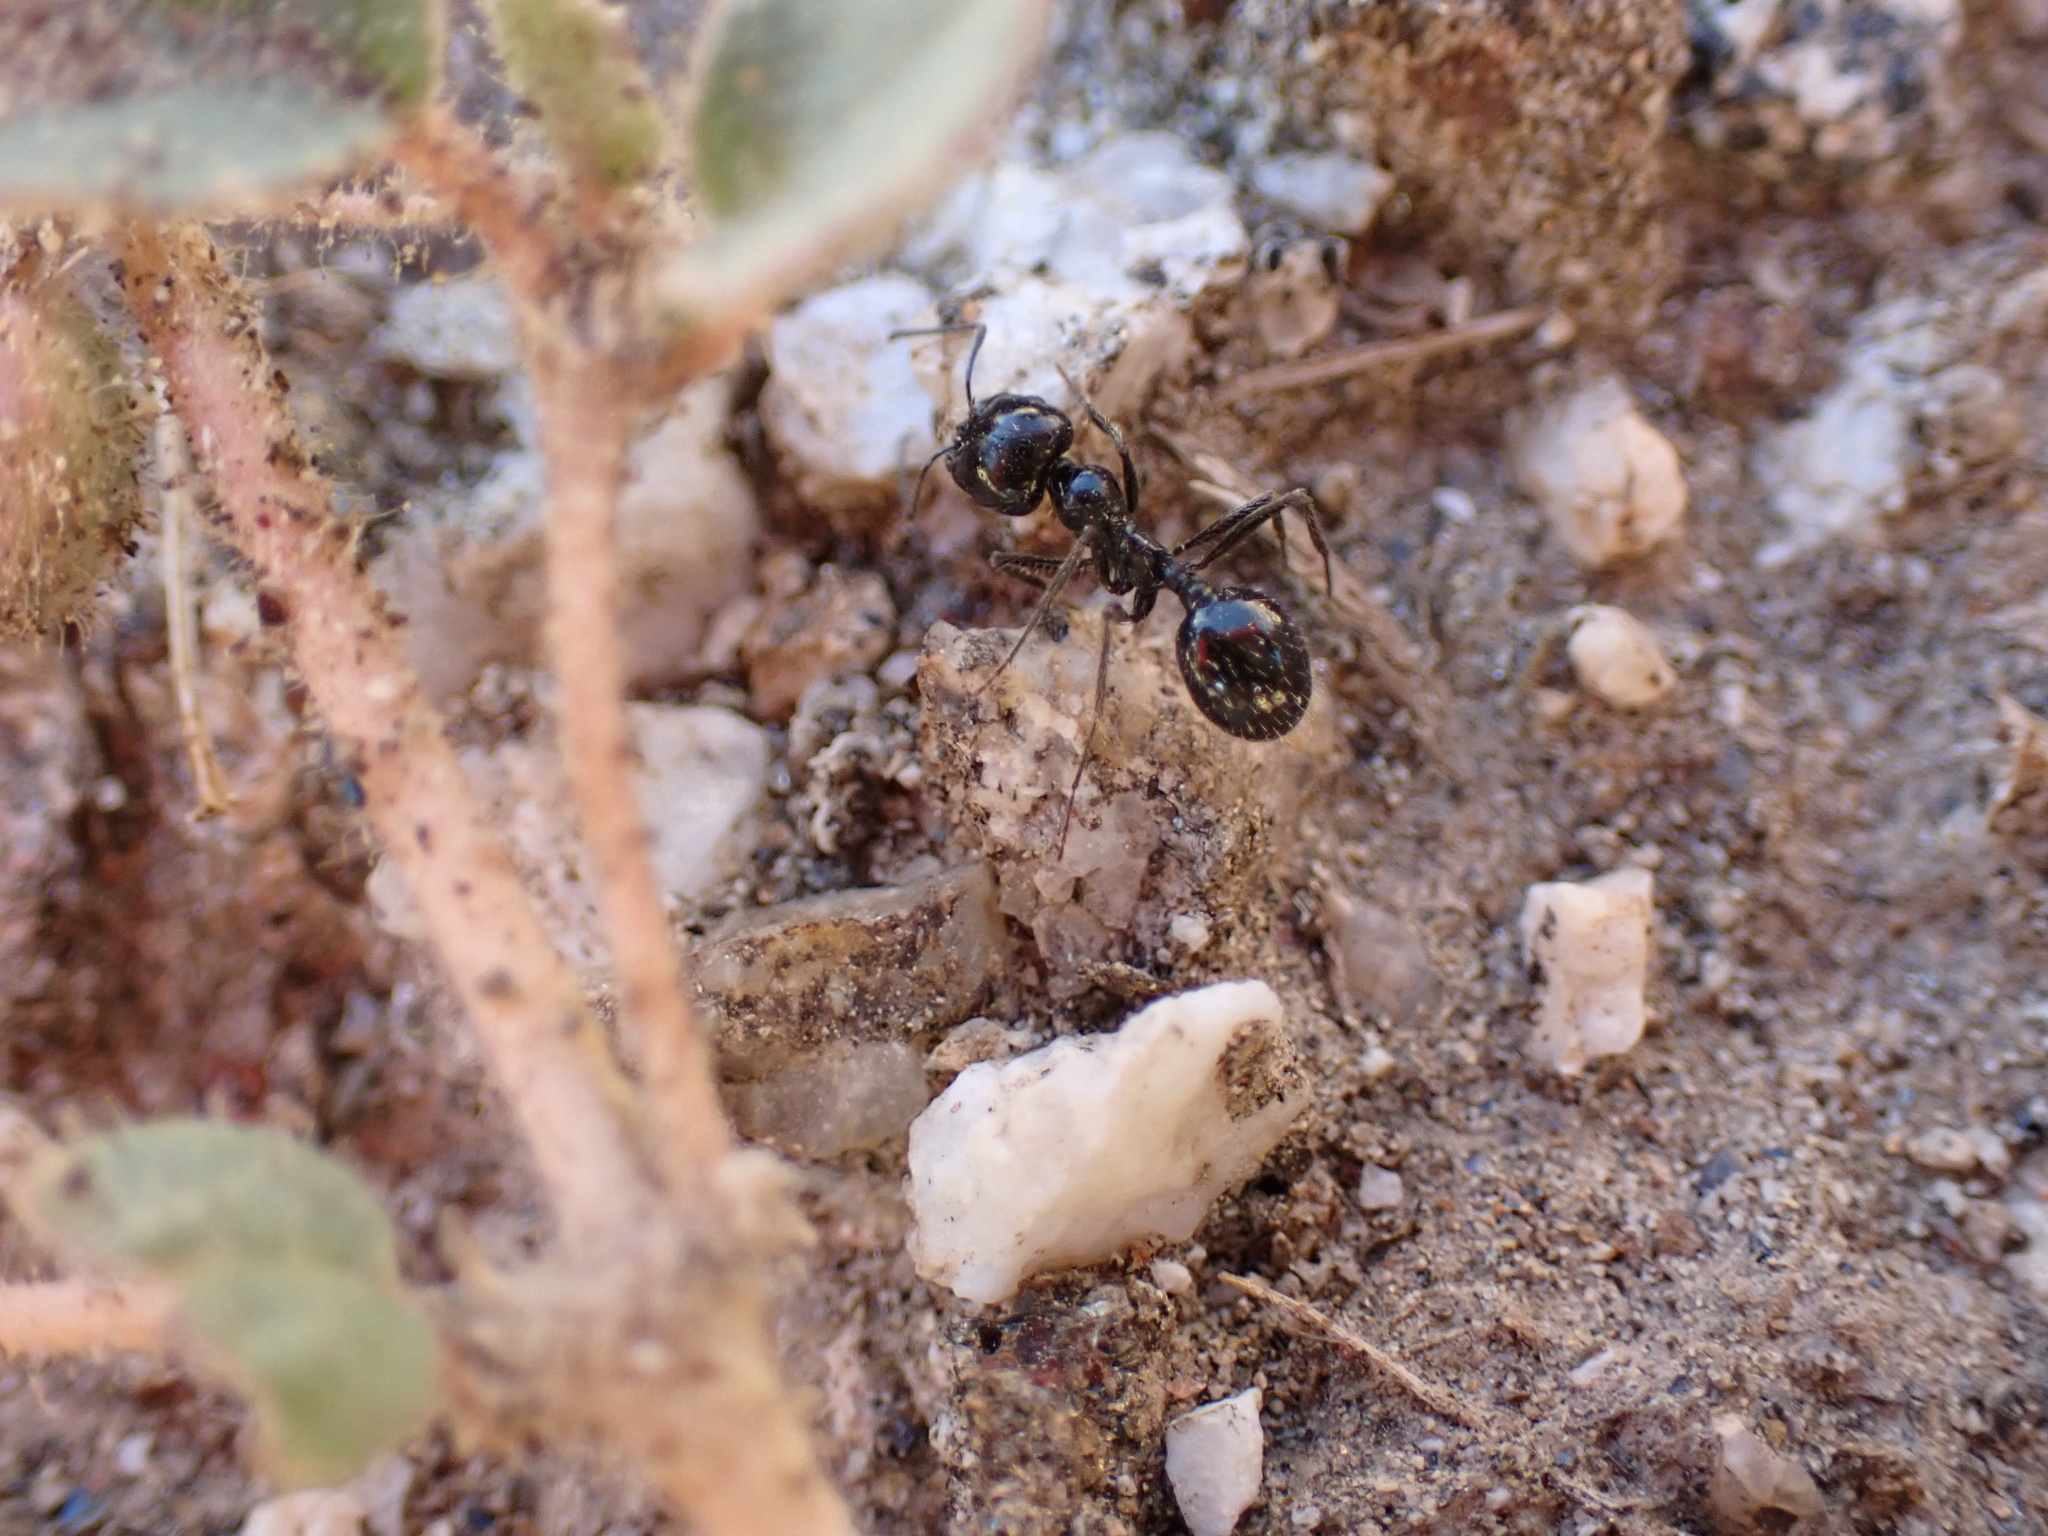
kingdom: Animalia
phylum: Arthropoda
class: Insecta
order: Hymenoptera
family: Formicidae
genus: Messor
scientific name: Messor pergandei
